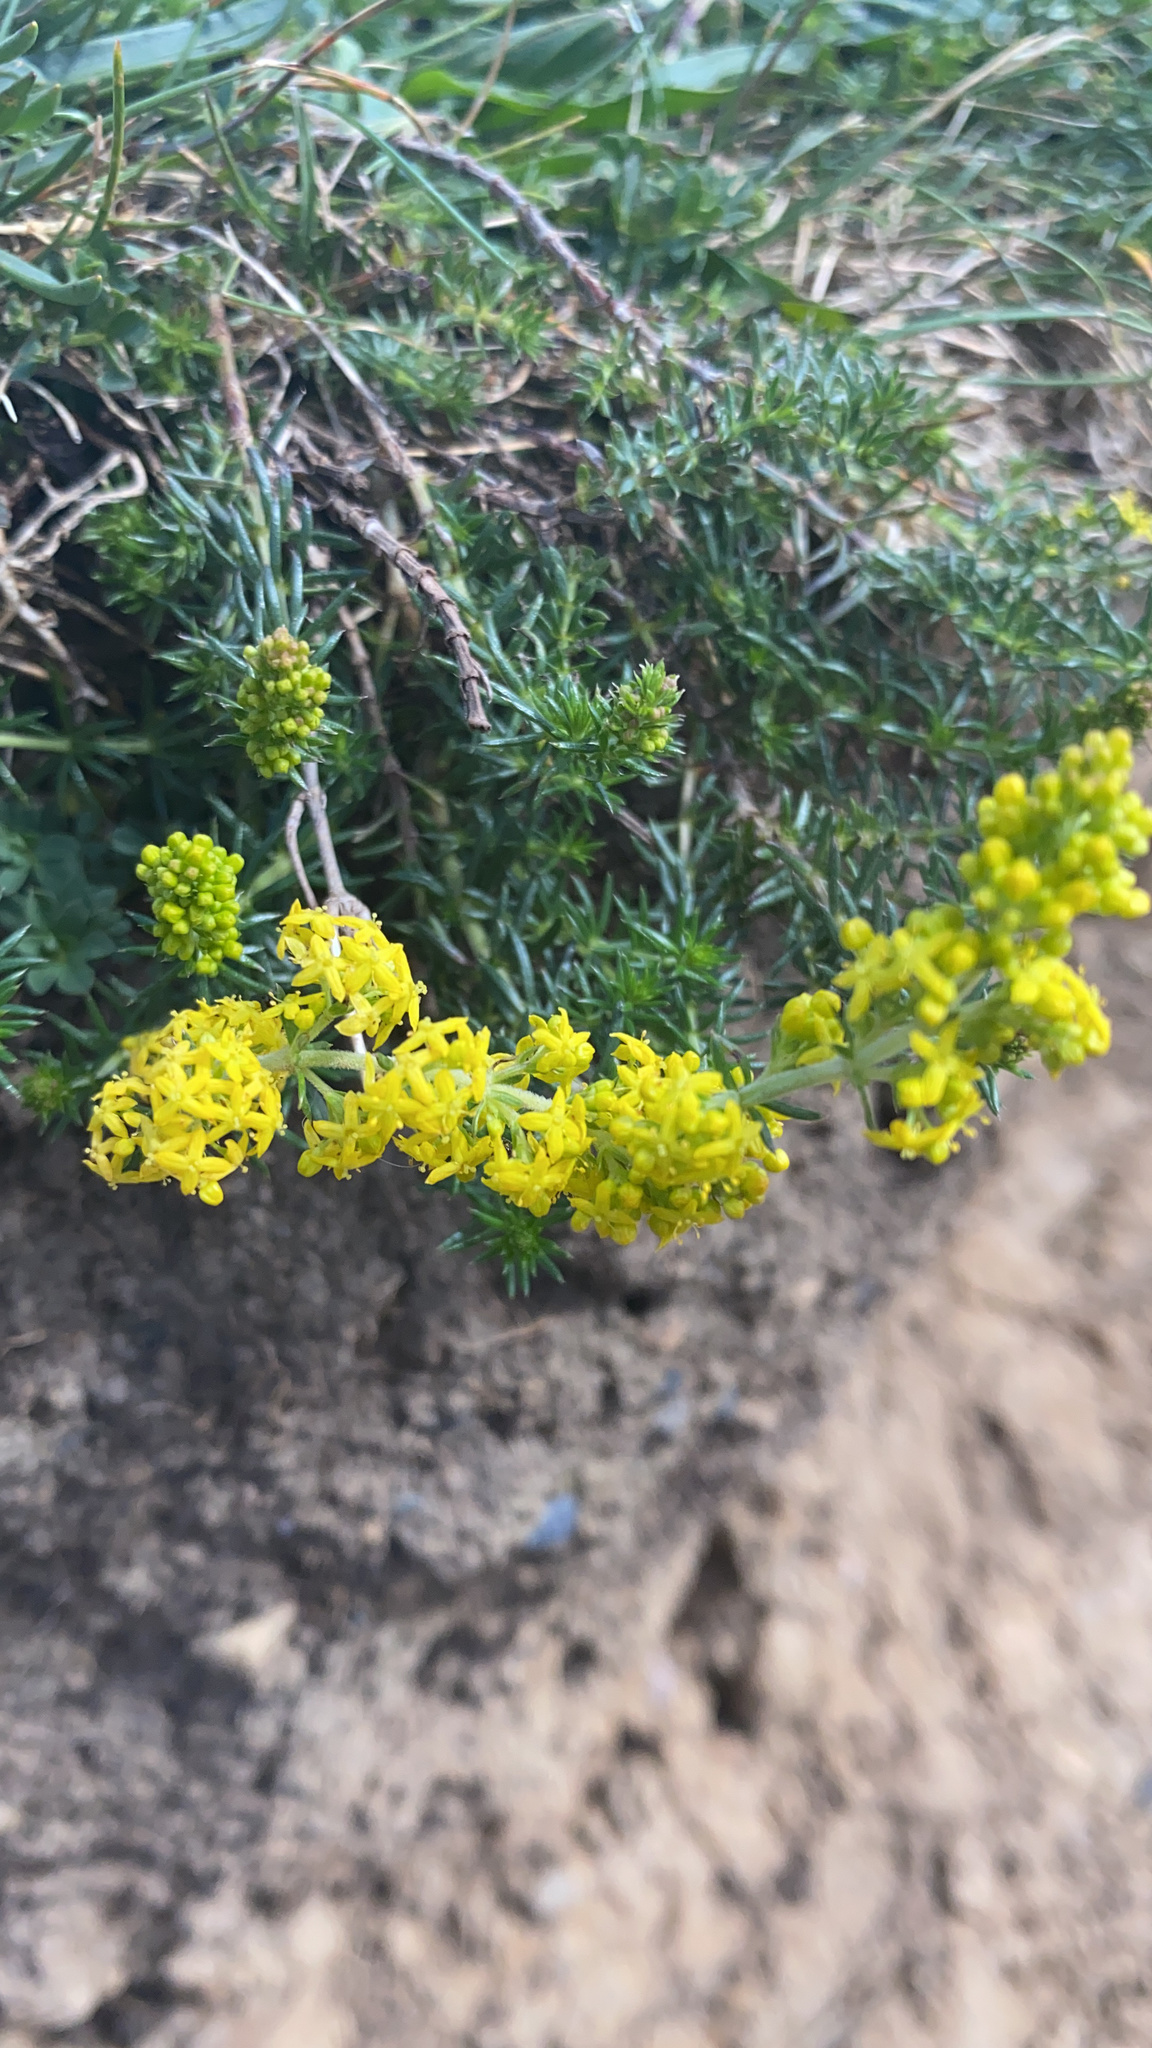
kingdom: Plantae
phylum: Tracheophyta
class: Magnoliopsida
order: Gentianales
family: Rubiaceae
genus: Galium
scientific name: Galium verum
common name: Lady's bedstraw
